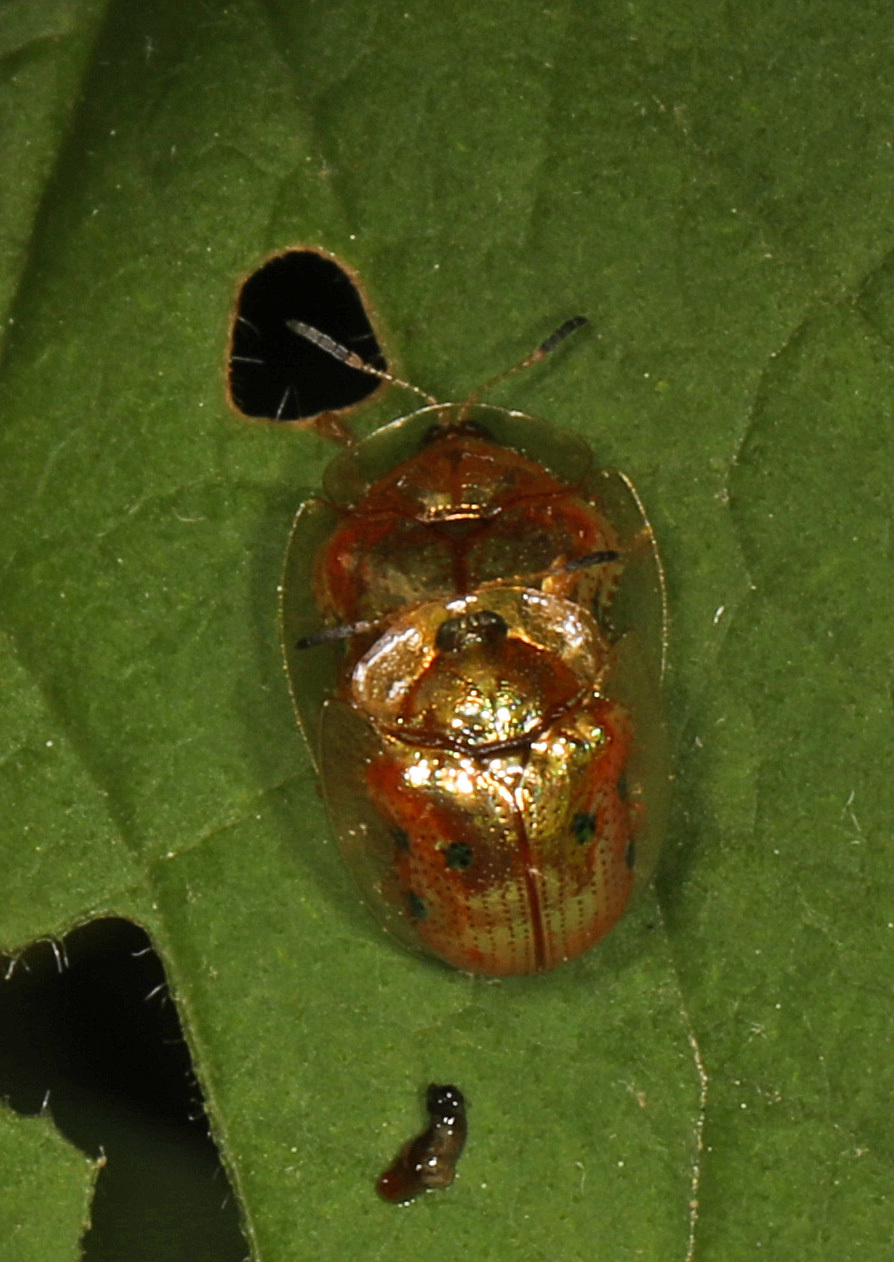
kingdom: Animalia
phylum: Arthropoda
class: Insecta
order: Coleoptera
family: Chrysomelidae
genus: Charidotella
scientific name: Charidotella sexpunctata
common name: Golden tortoise beetle
